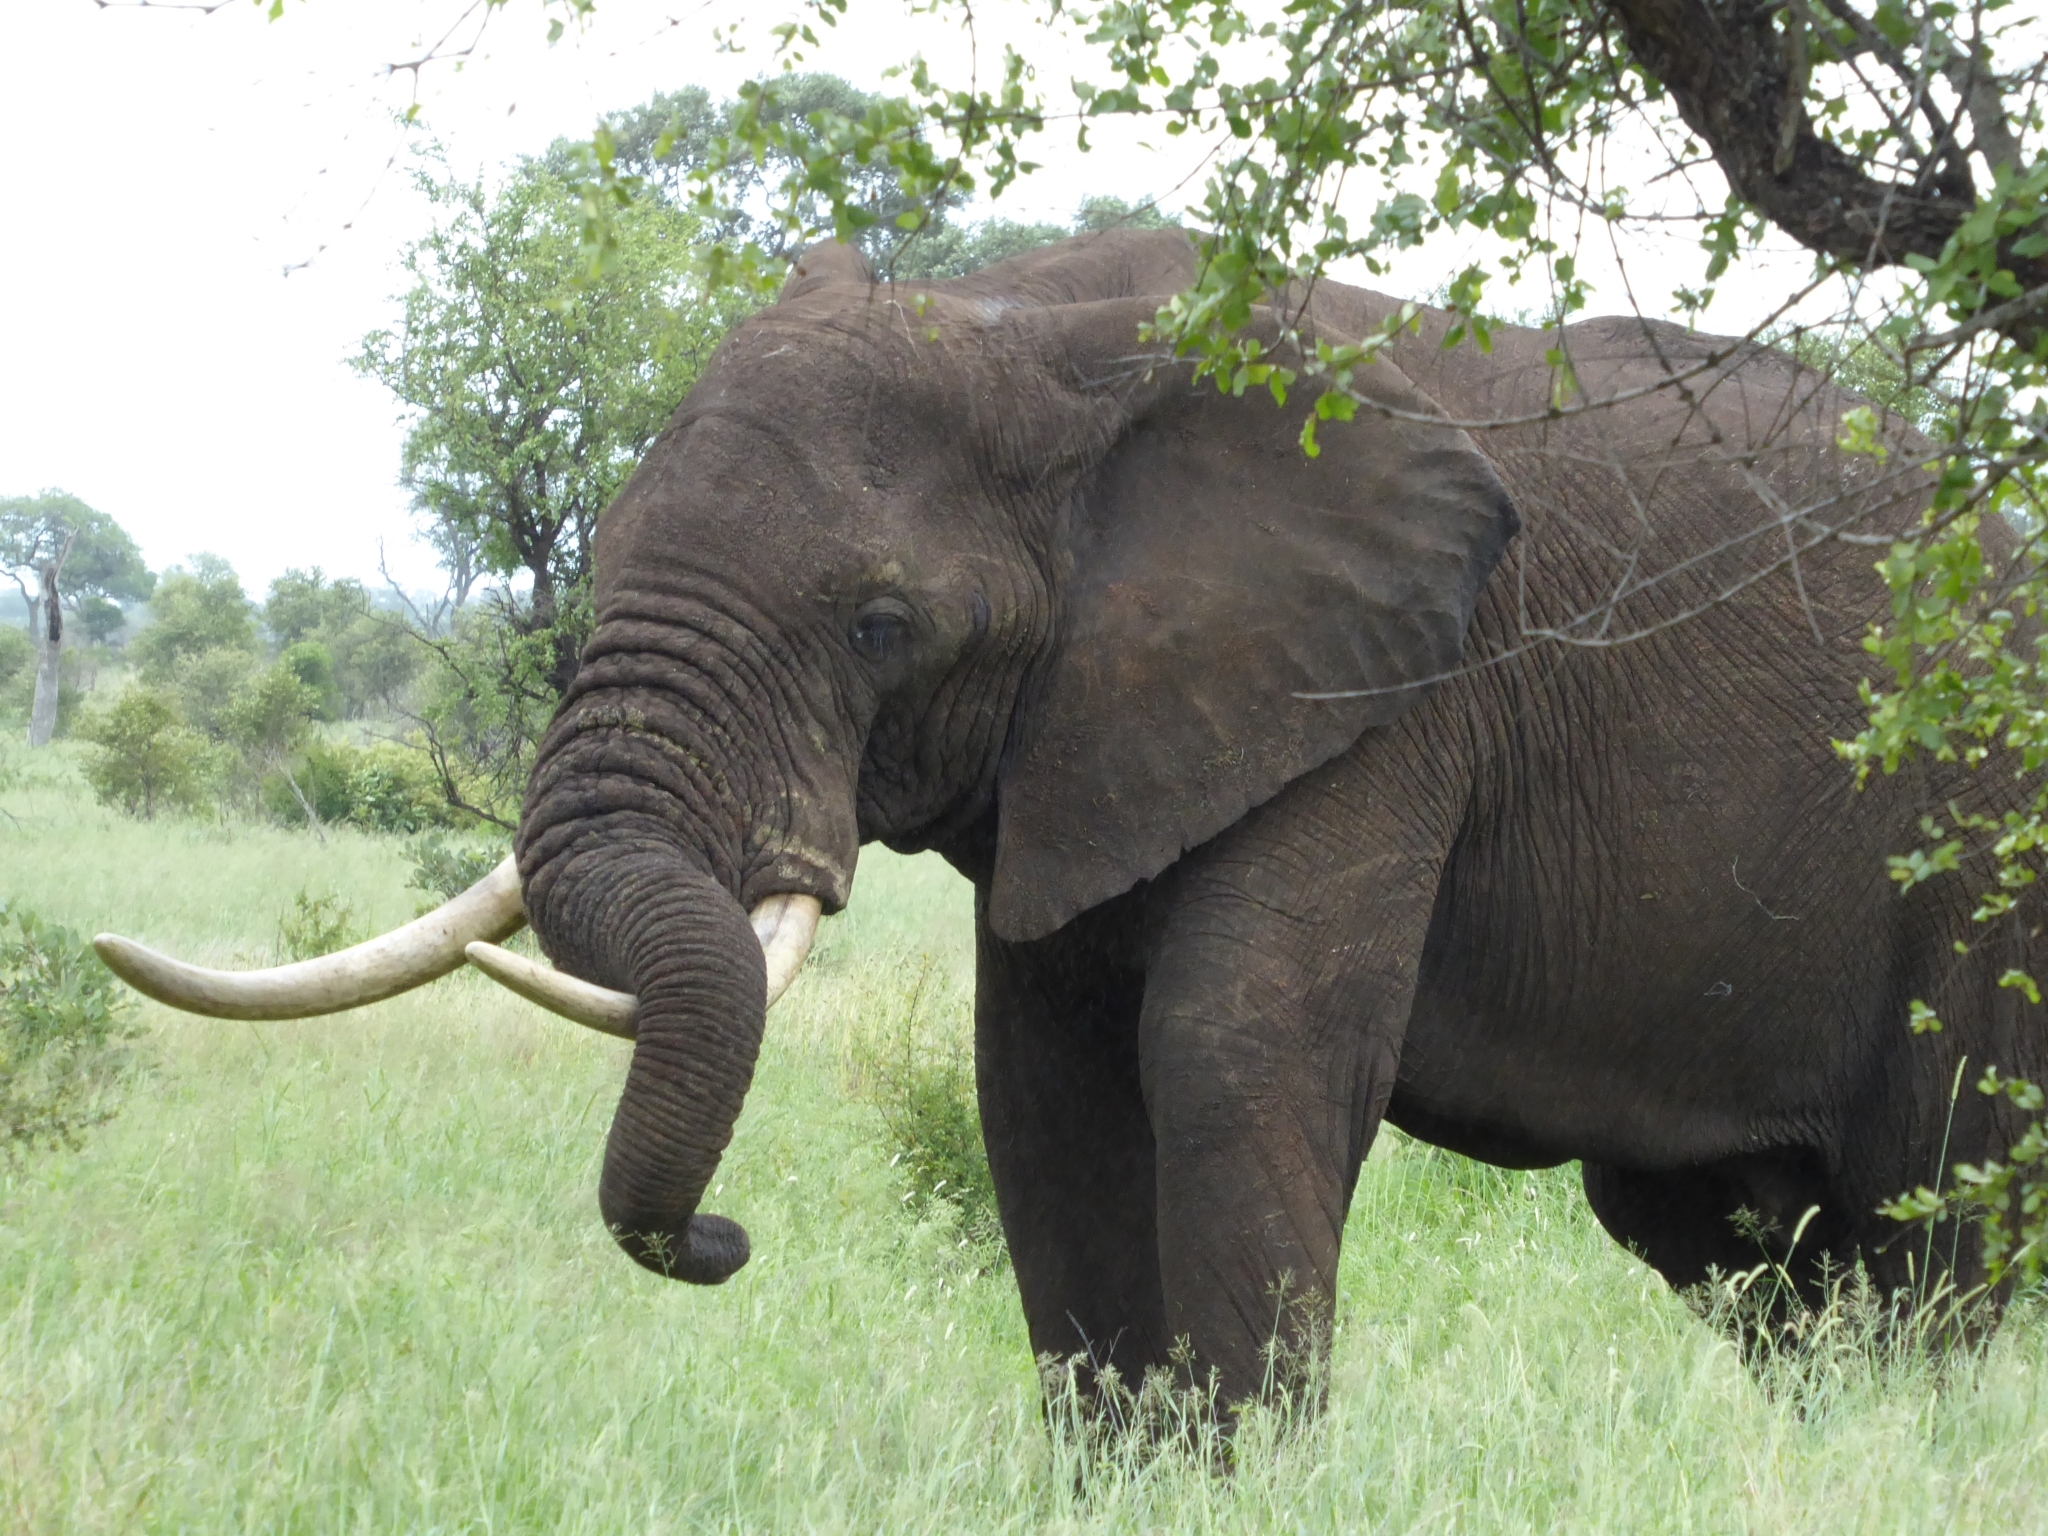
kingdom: Animalia
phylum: Chordata
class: Mammalia
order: Proboscidea
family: Elephantidae
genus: Loxodonta
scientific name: Loxodonta africana
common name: African elephant
